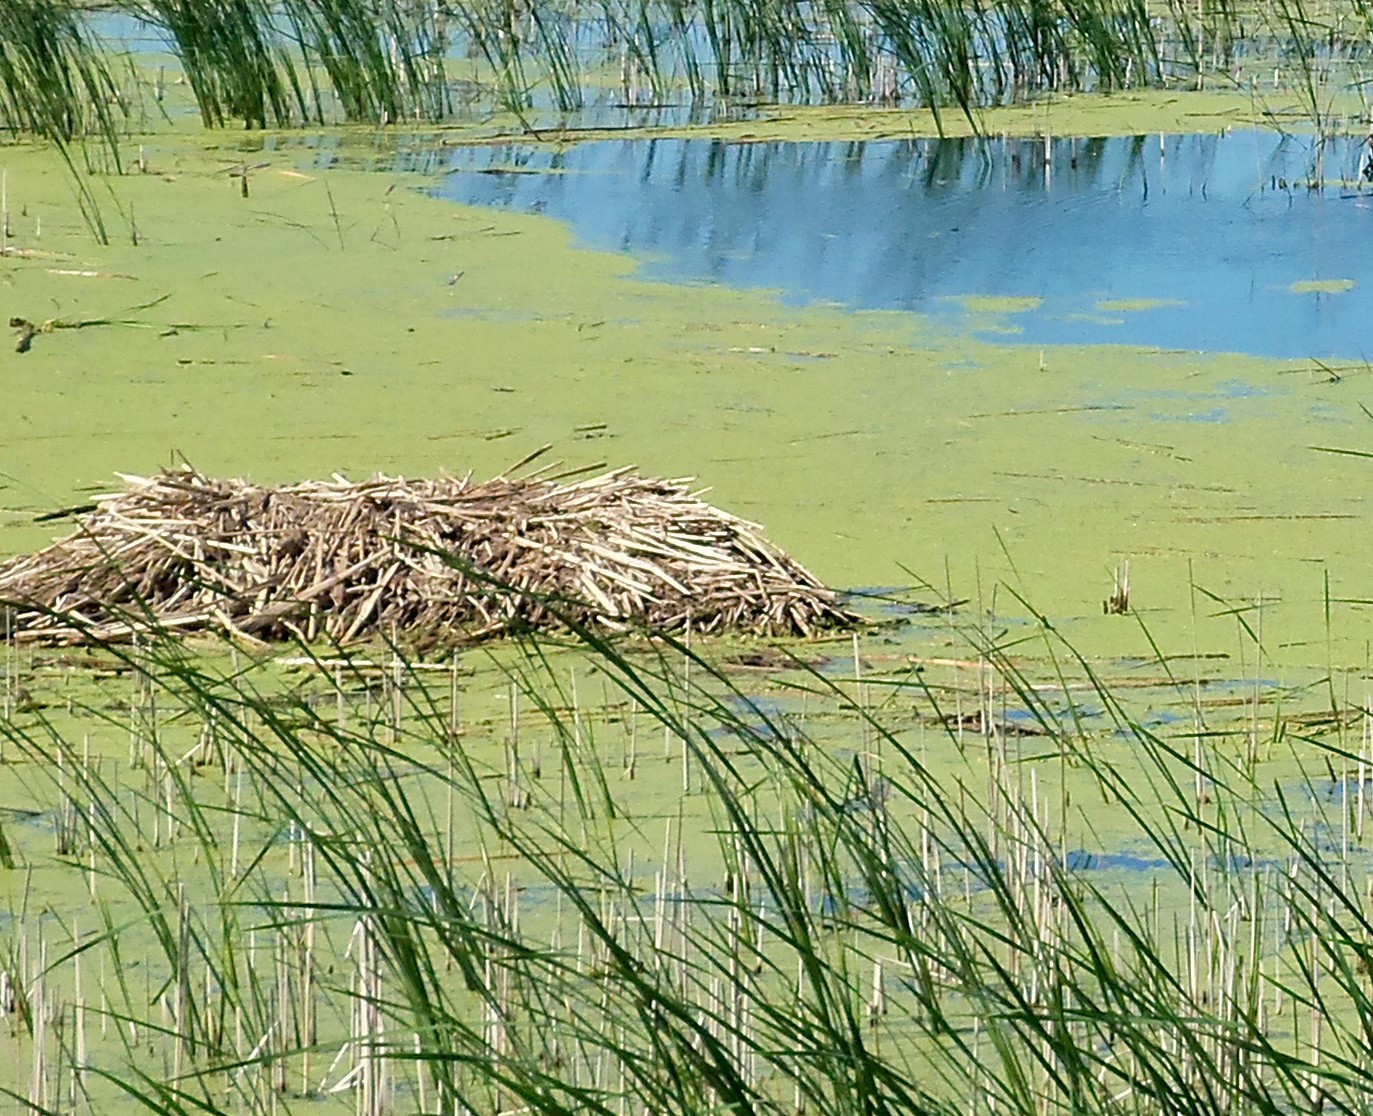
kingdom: Animalia
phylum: Chordata
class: Mammalia
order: Rodentia
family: Cricetidae
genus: Ondatra
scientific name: Ondatra zibethicus
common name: Muskrat
